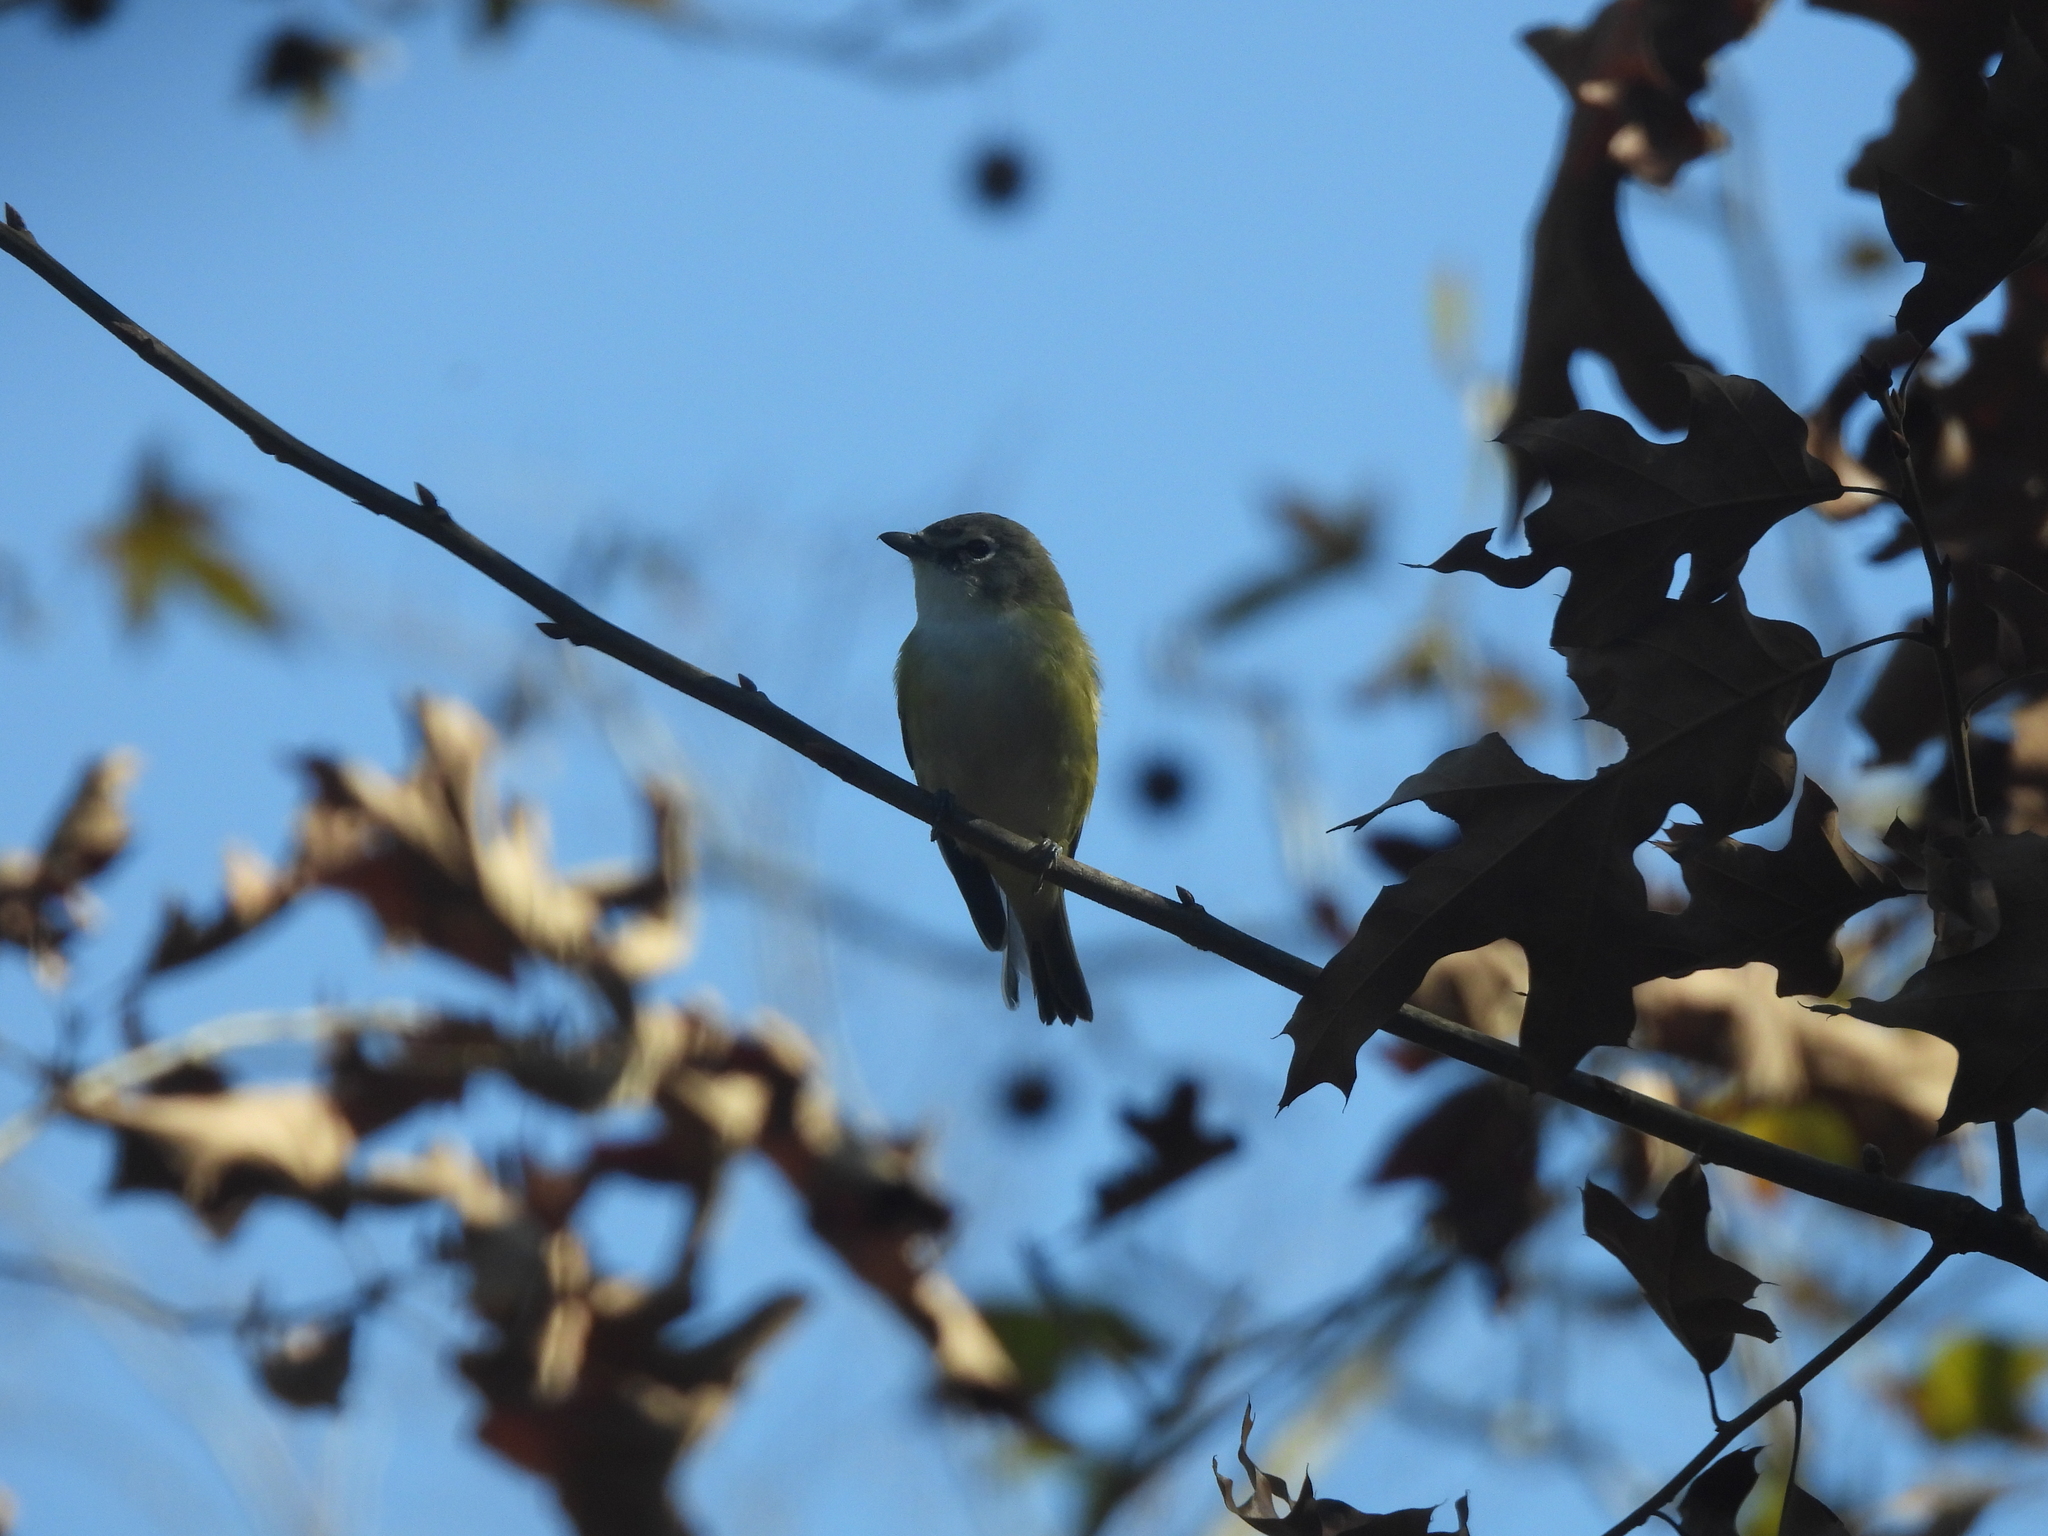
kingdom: Animalia
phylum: Chordata
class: Aves
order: Passeriformes
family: Vireonidae
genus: Vireo
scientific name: Vireo solitarius
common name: Blue-headed vireo
